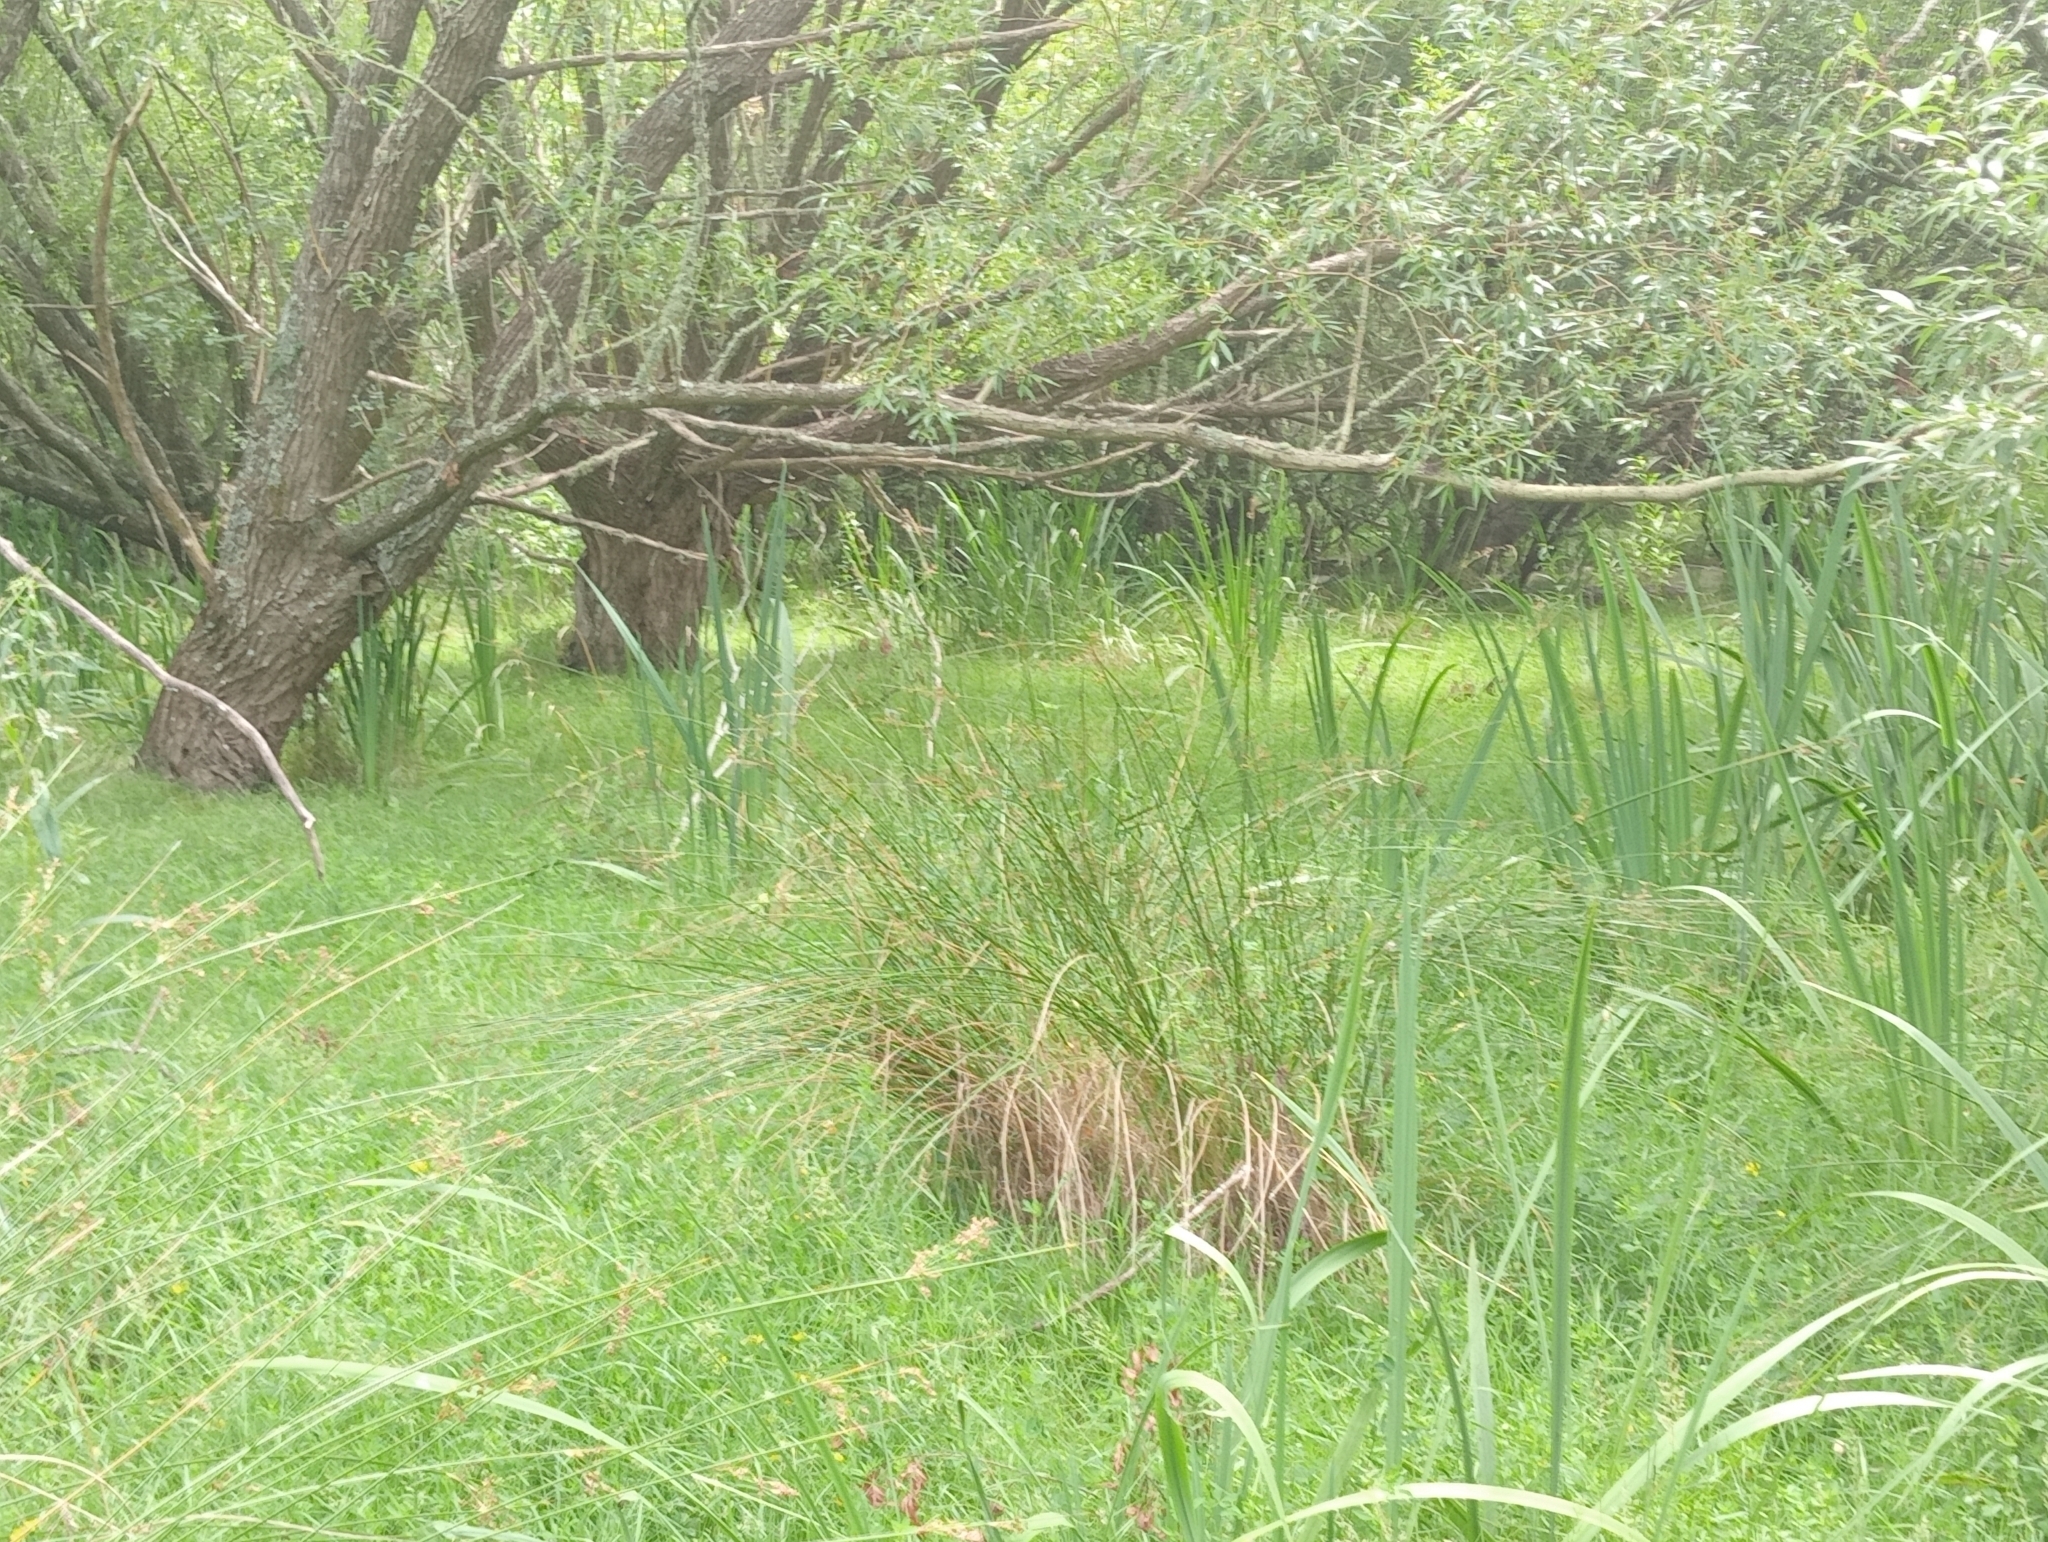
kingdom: Plantae
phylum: Tracheophyta
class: Liliopsida
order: Asparagales
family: Iridaceae
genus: Iris
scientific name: Iris pseudacorus
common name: Yellow flag
